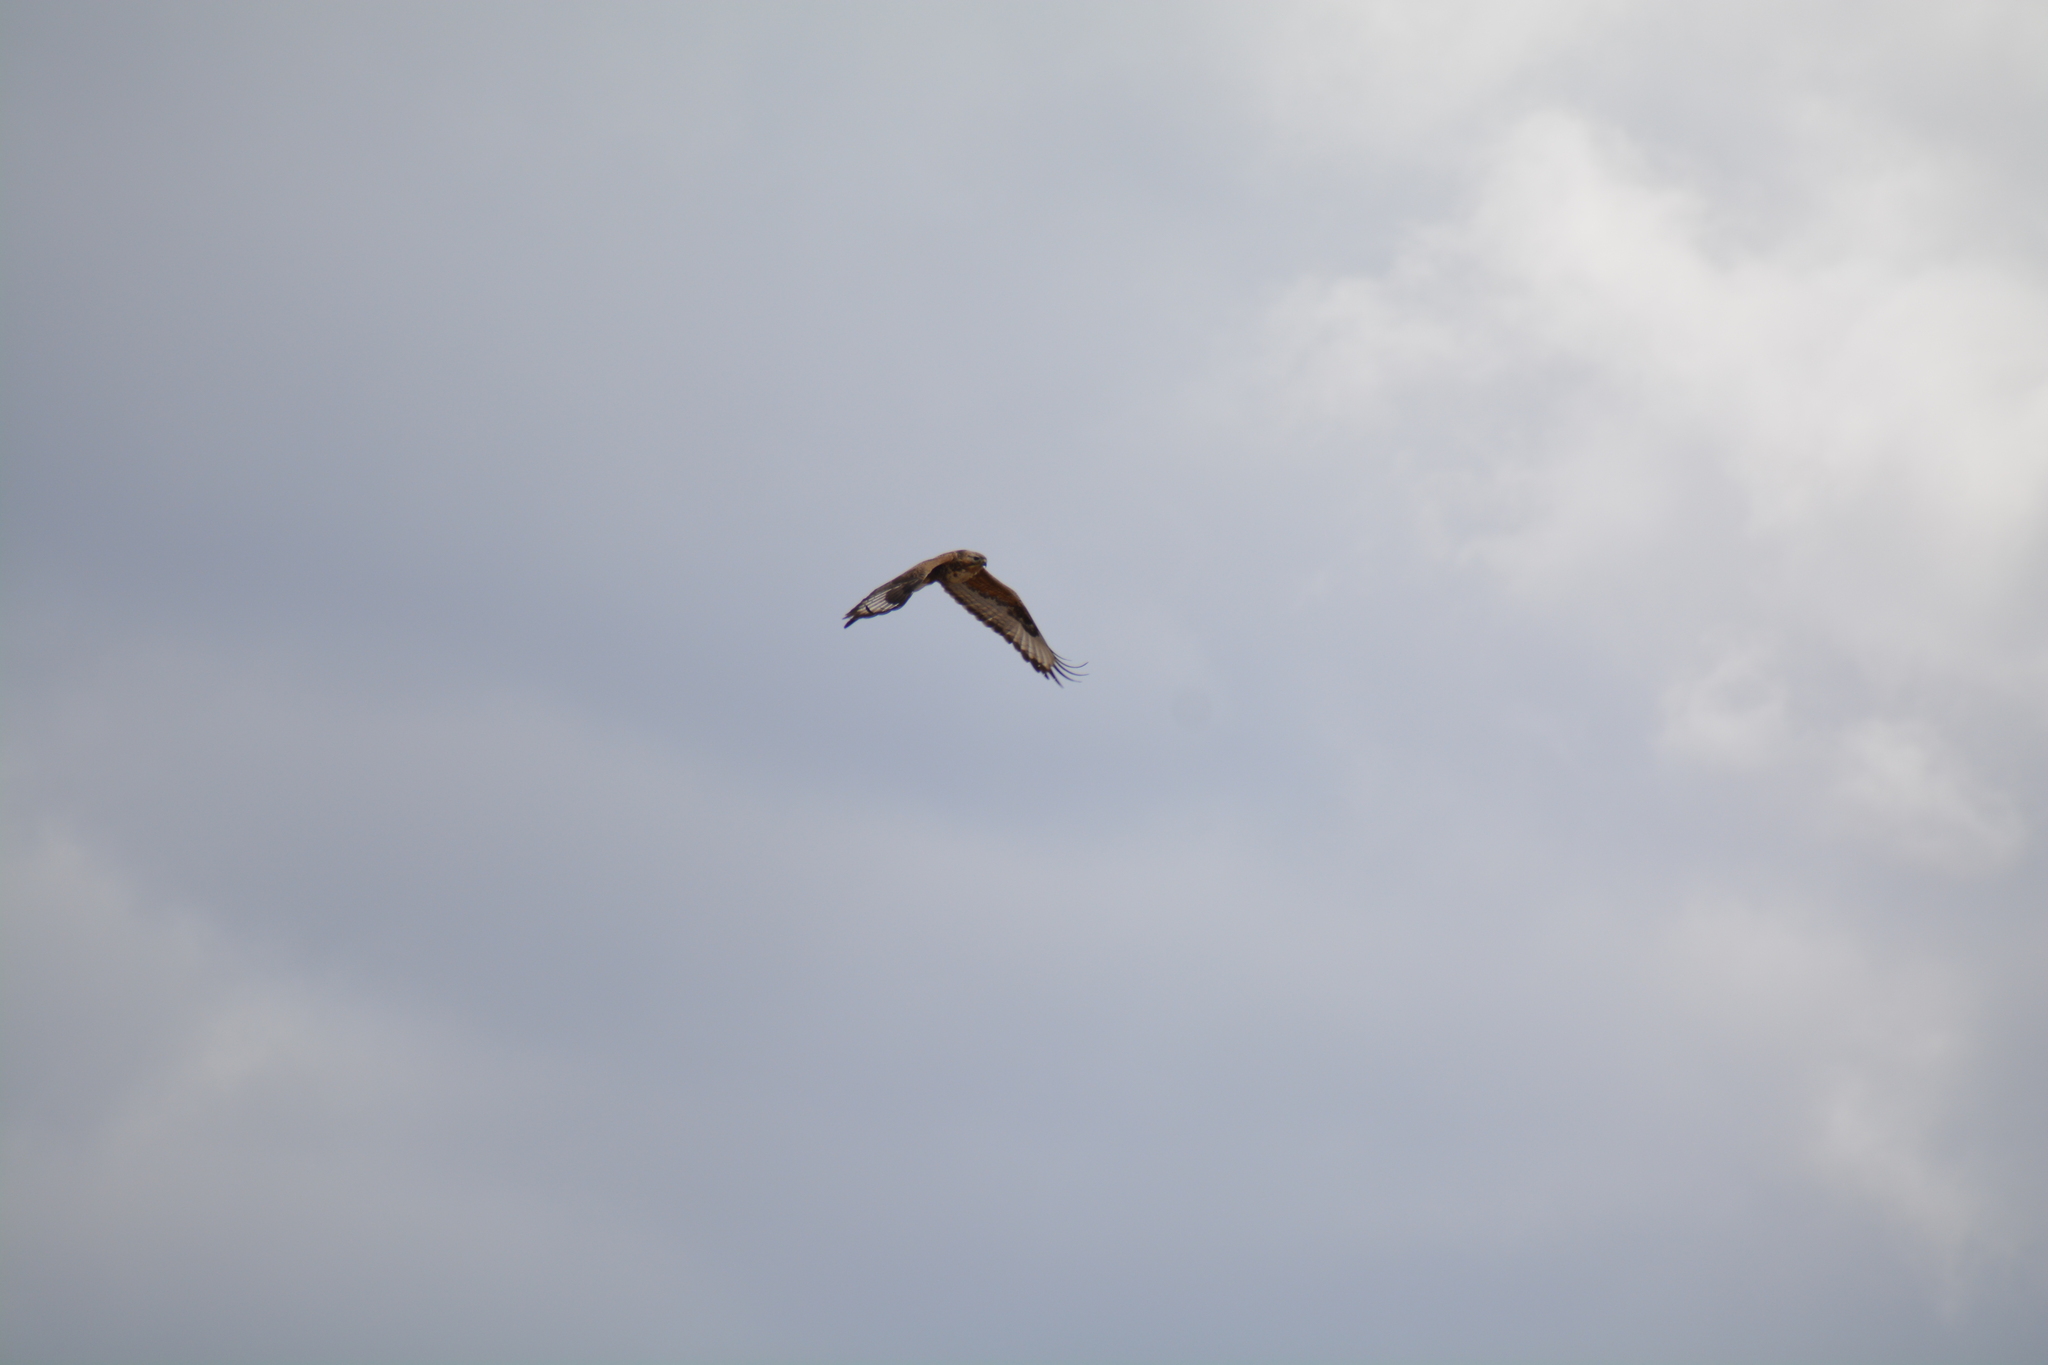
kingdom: Animalia
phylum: Chordata
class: Aves
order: Accipitriformes
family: Accipitridae
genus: Buteo
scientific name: Buteo hemilasius
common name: Upland buzzard
